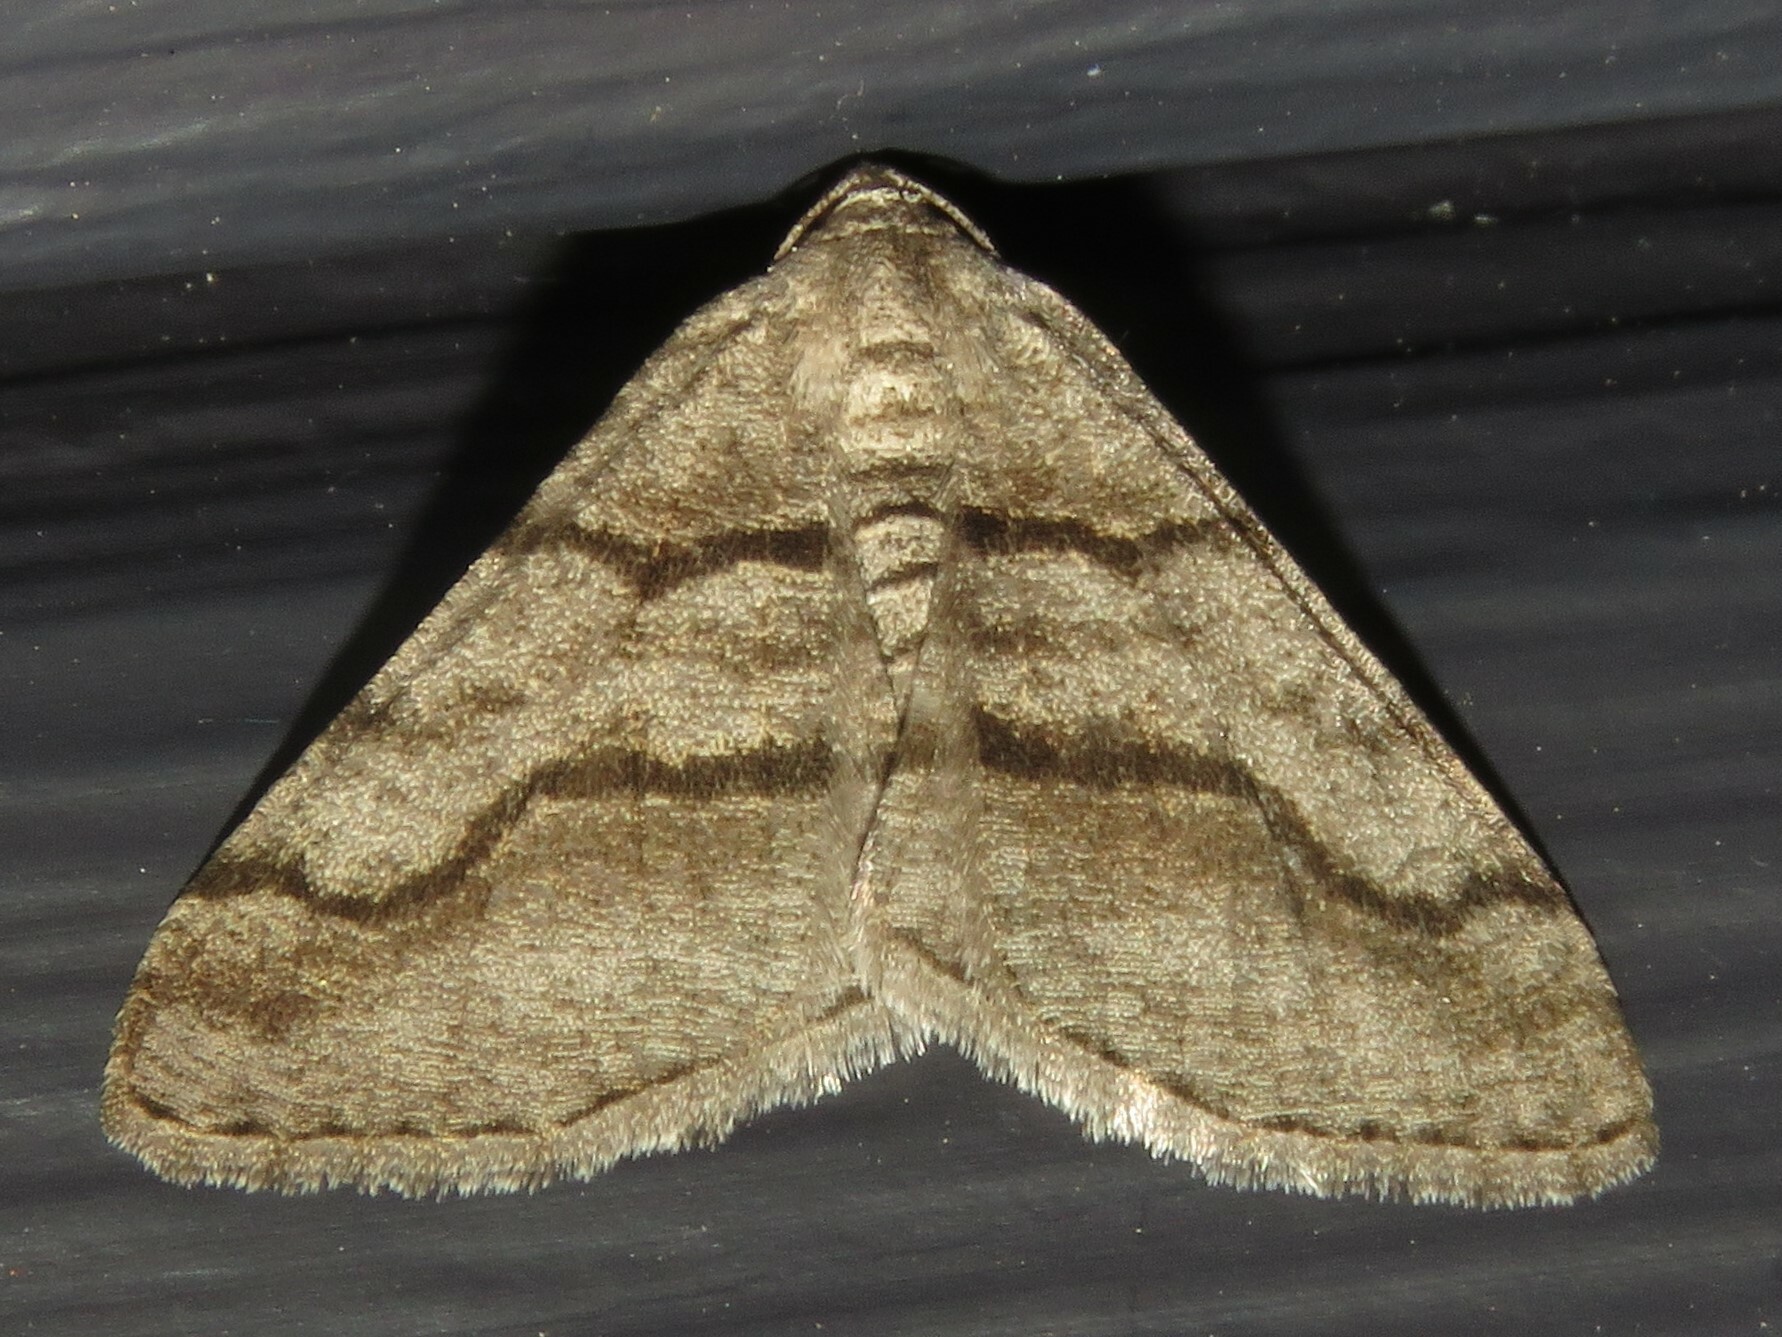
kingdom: Animalia
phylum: Arthropoda
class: Insecta
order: Lepidoptera
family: Geometridae
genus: Digrammia
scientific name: Digrammia continuata
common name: Curve-lined angle
